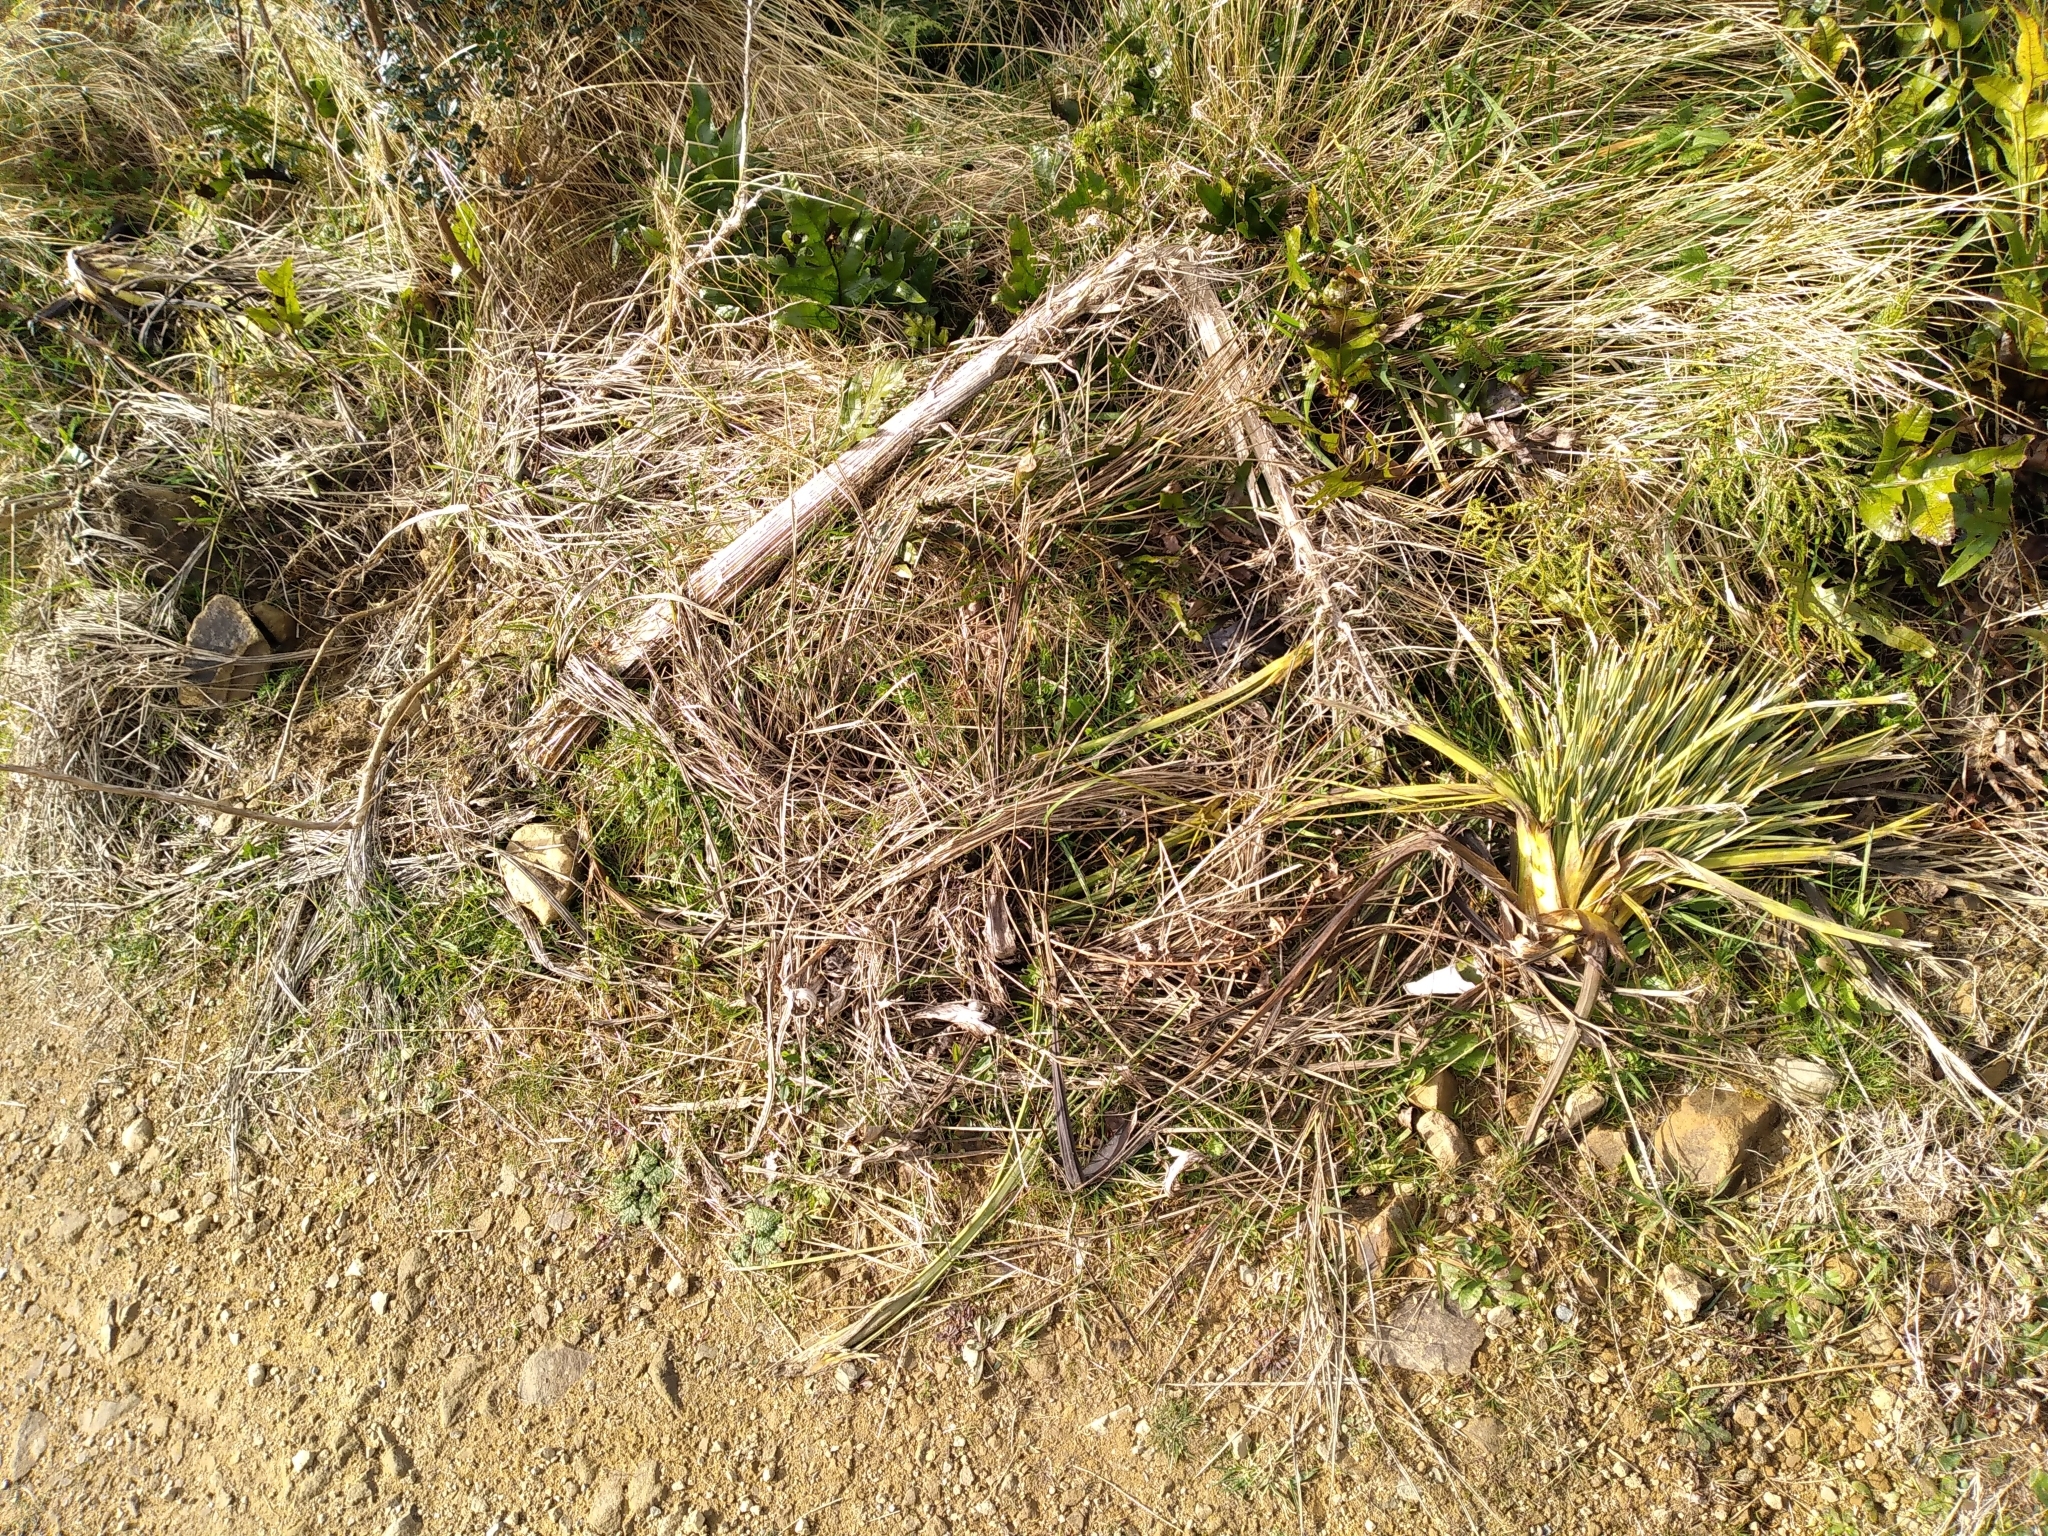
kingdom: Plantae
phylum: Tracheophyta
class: Magnoliopsida
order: Apiales
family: Apiaceae
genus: Aciphylla
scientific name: Aciphylla squarrosa
